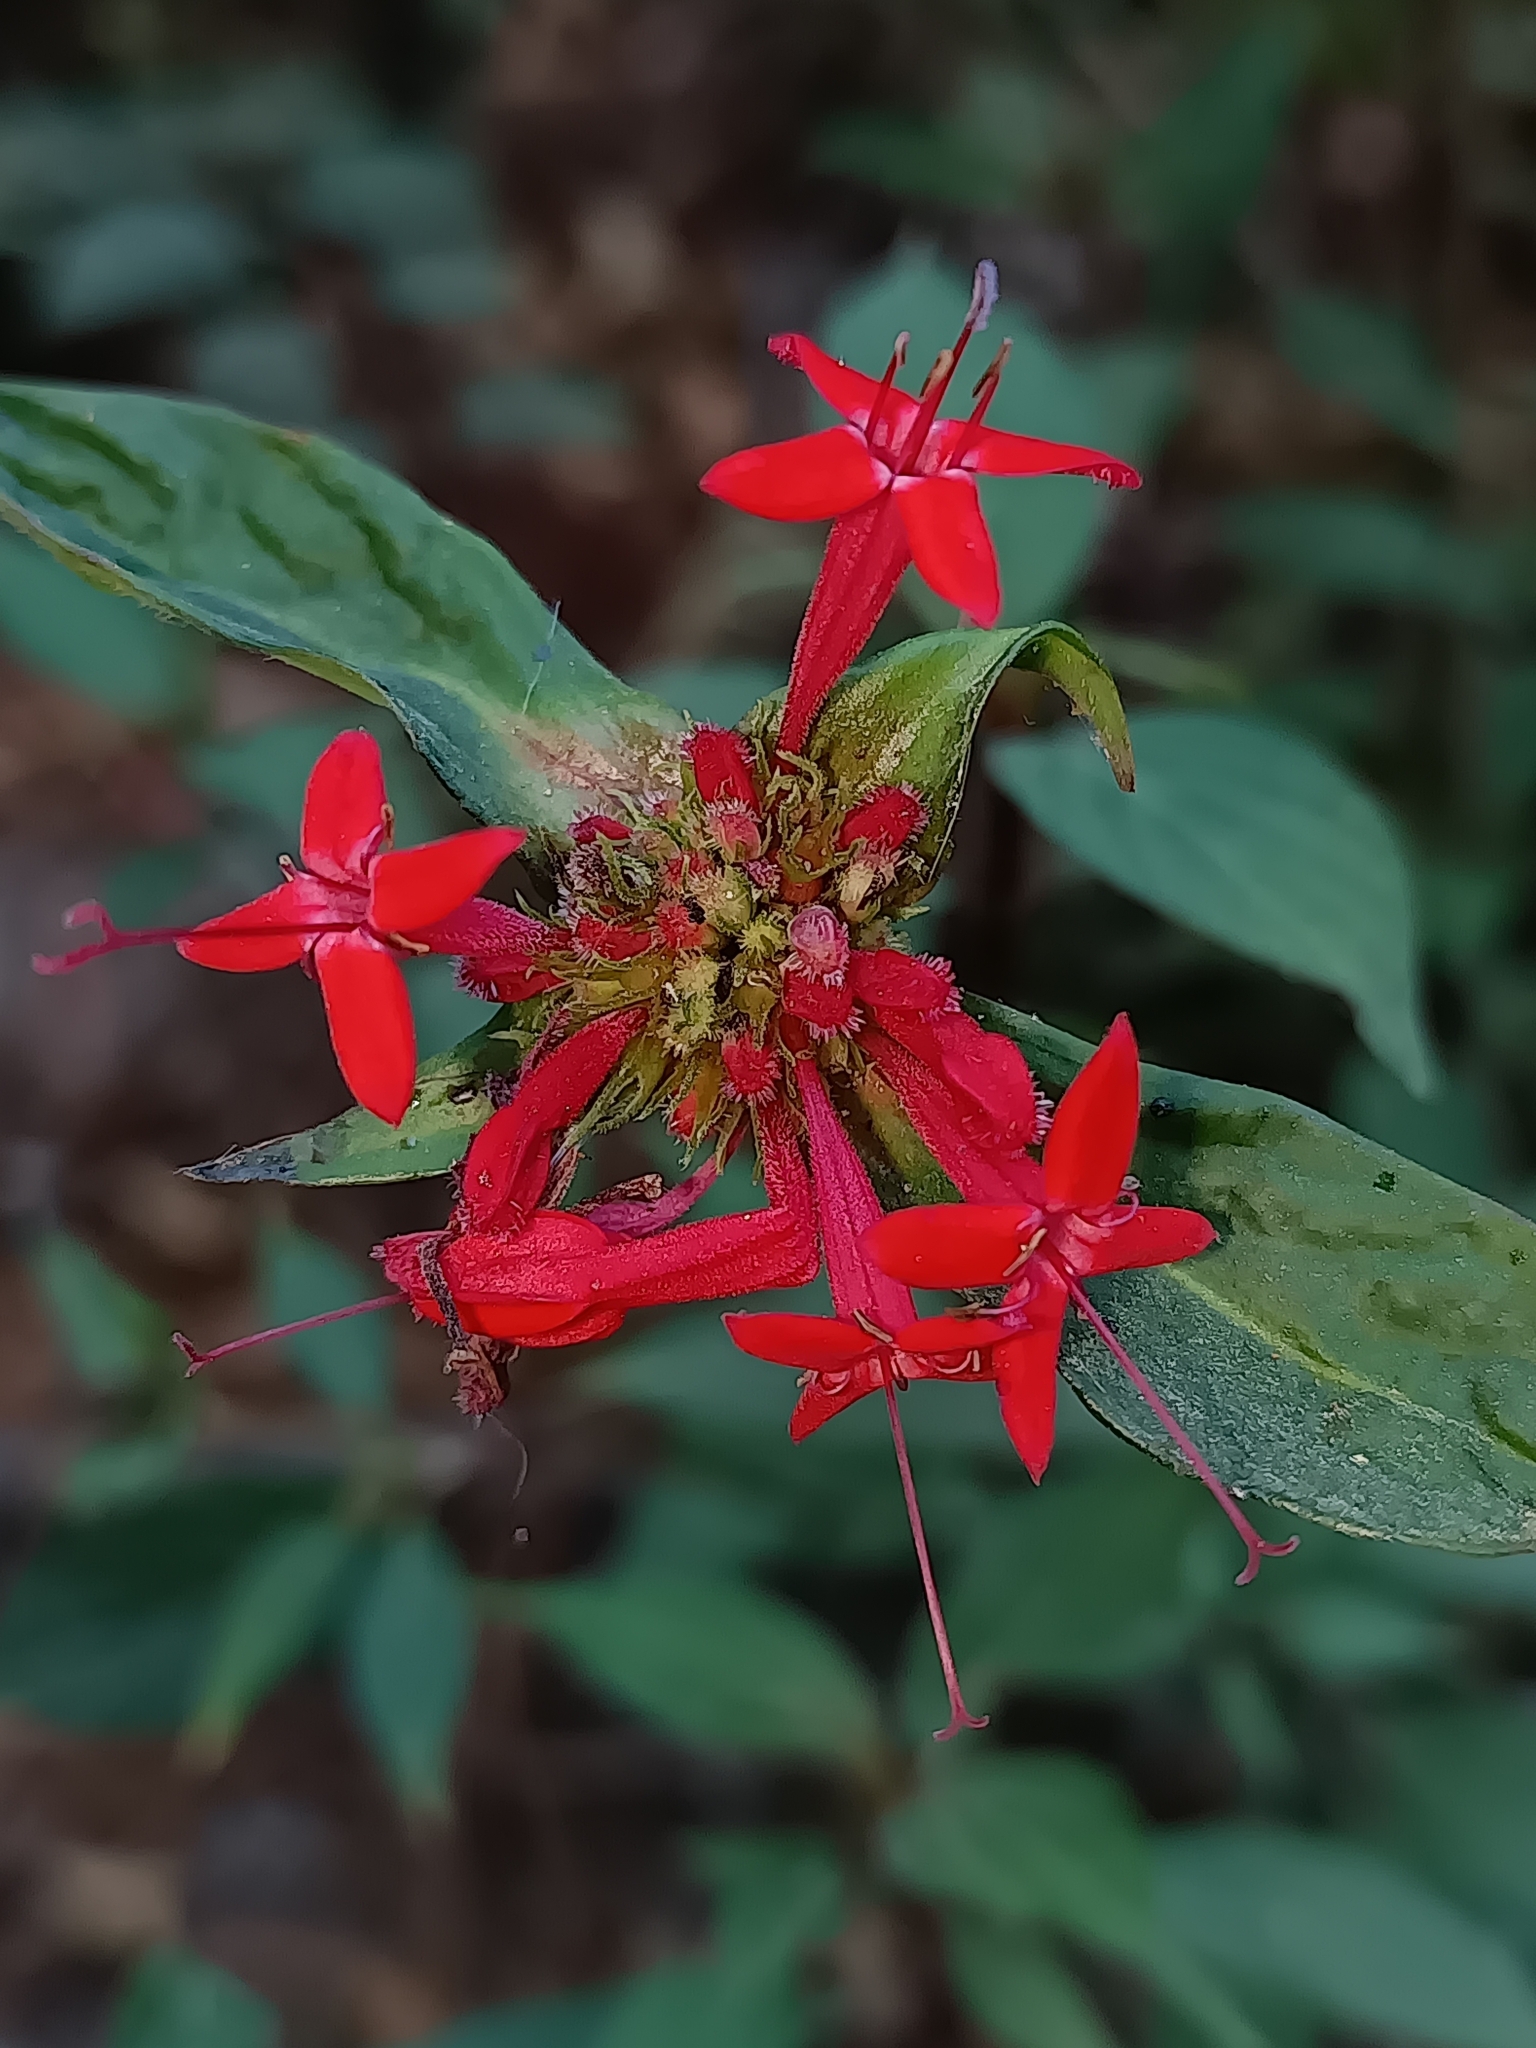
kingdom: Plantae
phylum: Tracheophyta
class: Magnoliopsida
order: Gentianales
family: Rubiaceae
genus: Crusea
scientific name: Crusea coccinea
